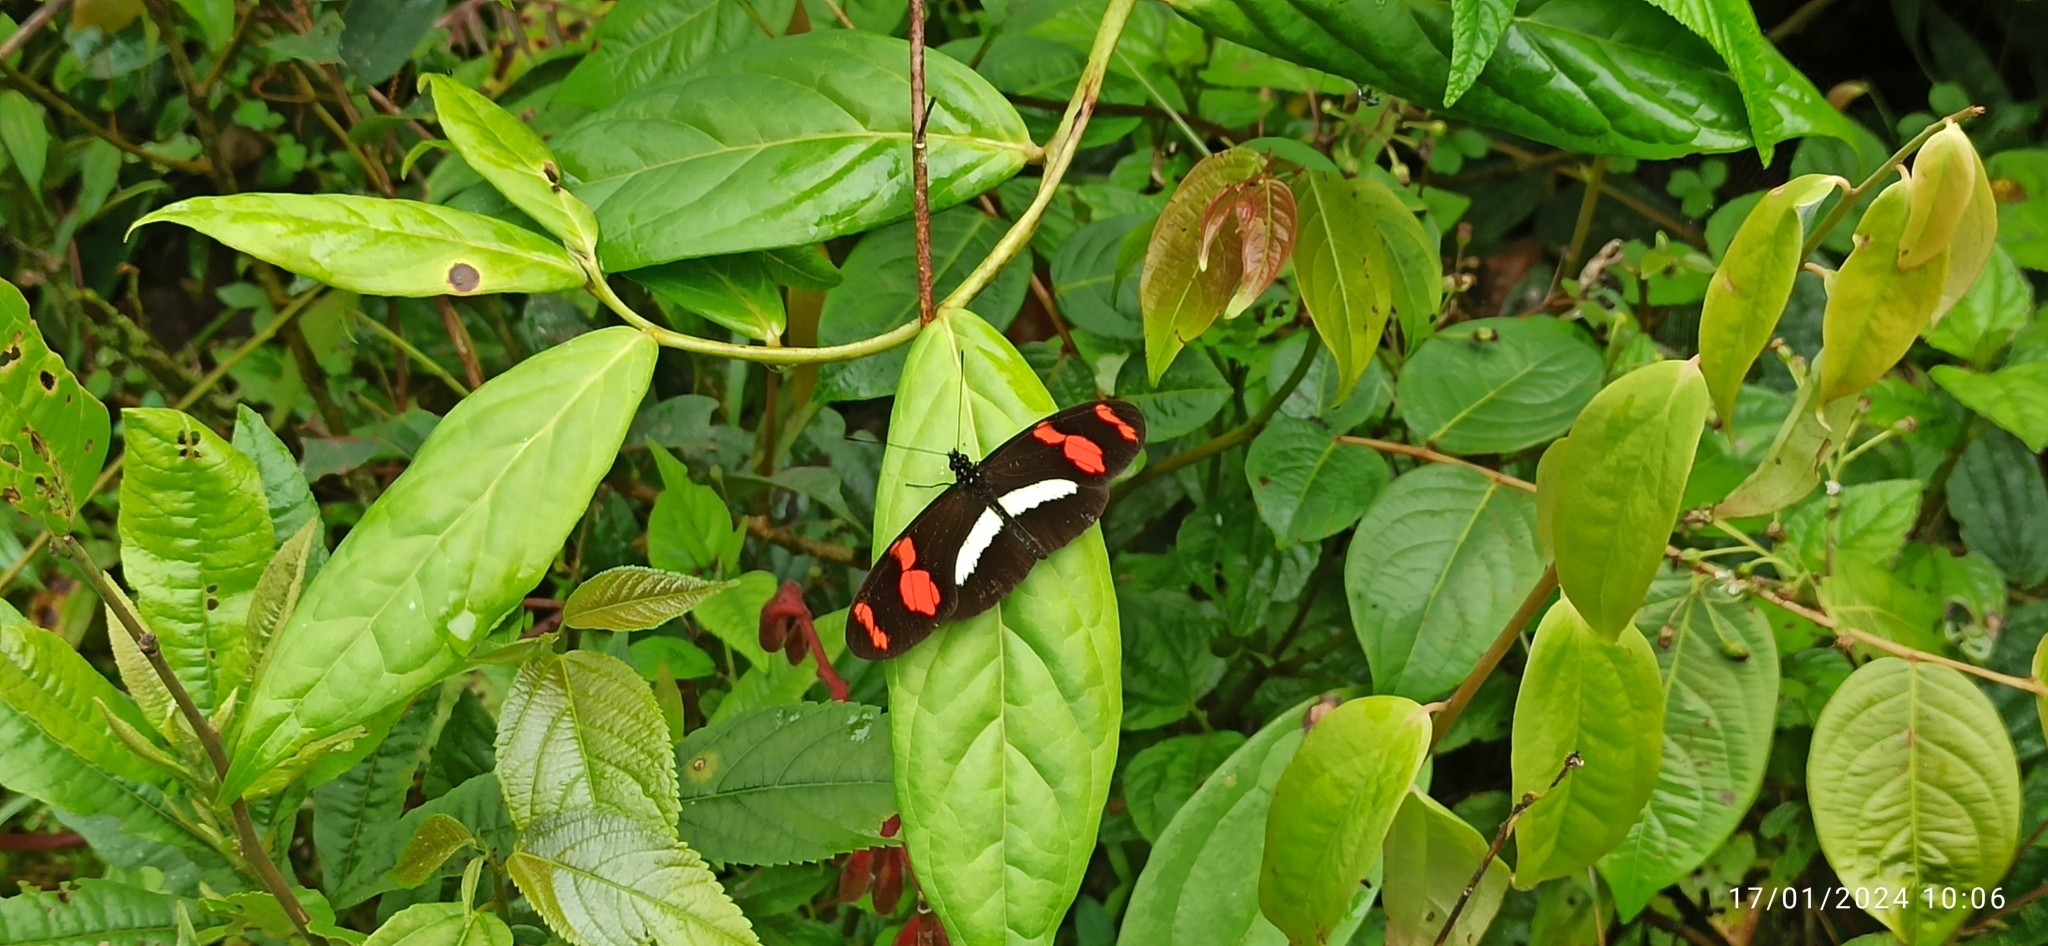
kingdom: Animalia
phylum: Arthropoda
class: Insecta
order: Lepidoptera
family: Nymphalidae
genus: Heliconius
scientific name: Heliconius telesiphe
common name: Telesiphe longwing
